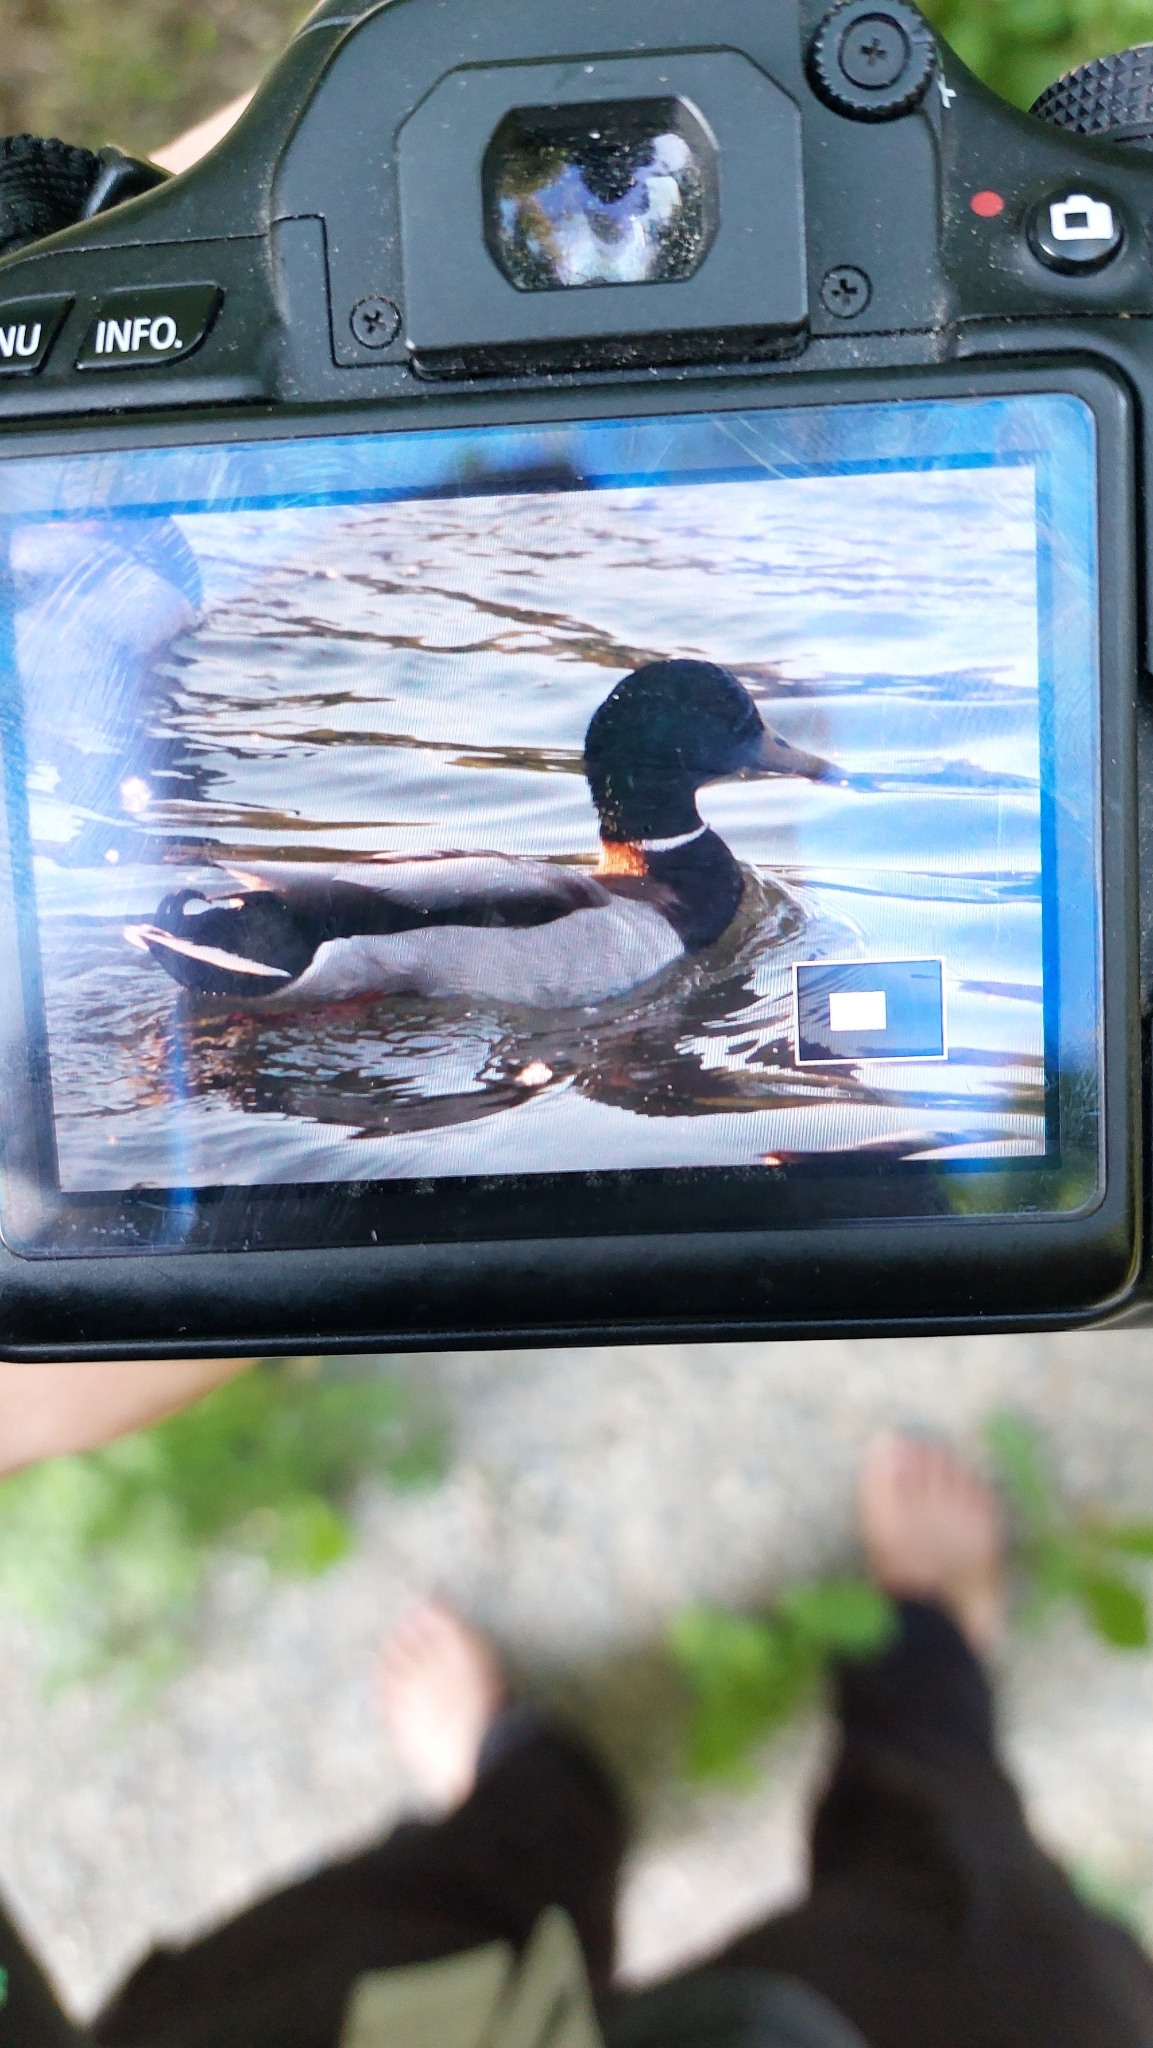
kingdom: Animalia
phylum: Chordata
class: Aves
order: Anseriformes
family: Anatidae
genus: Anas
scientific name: Anas platyrhynchos
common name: Mallard
